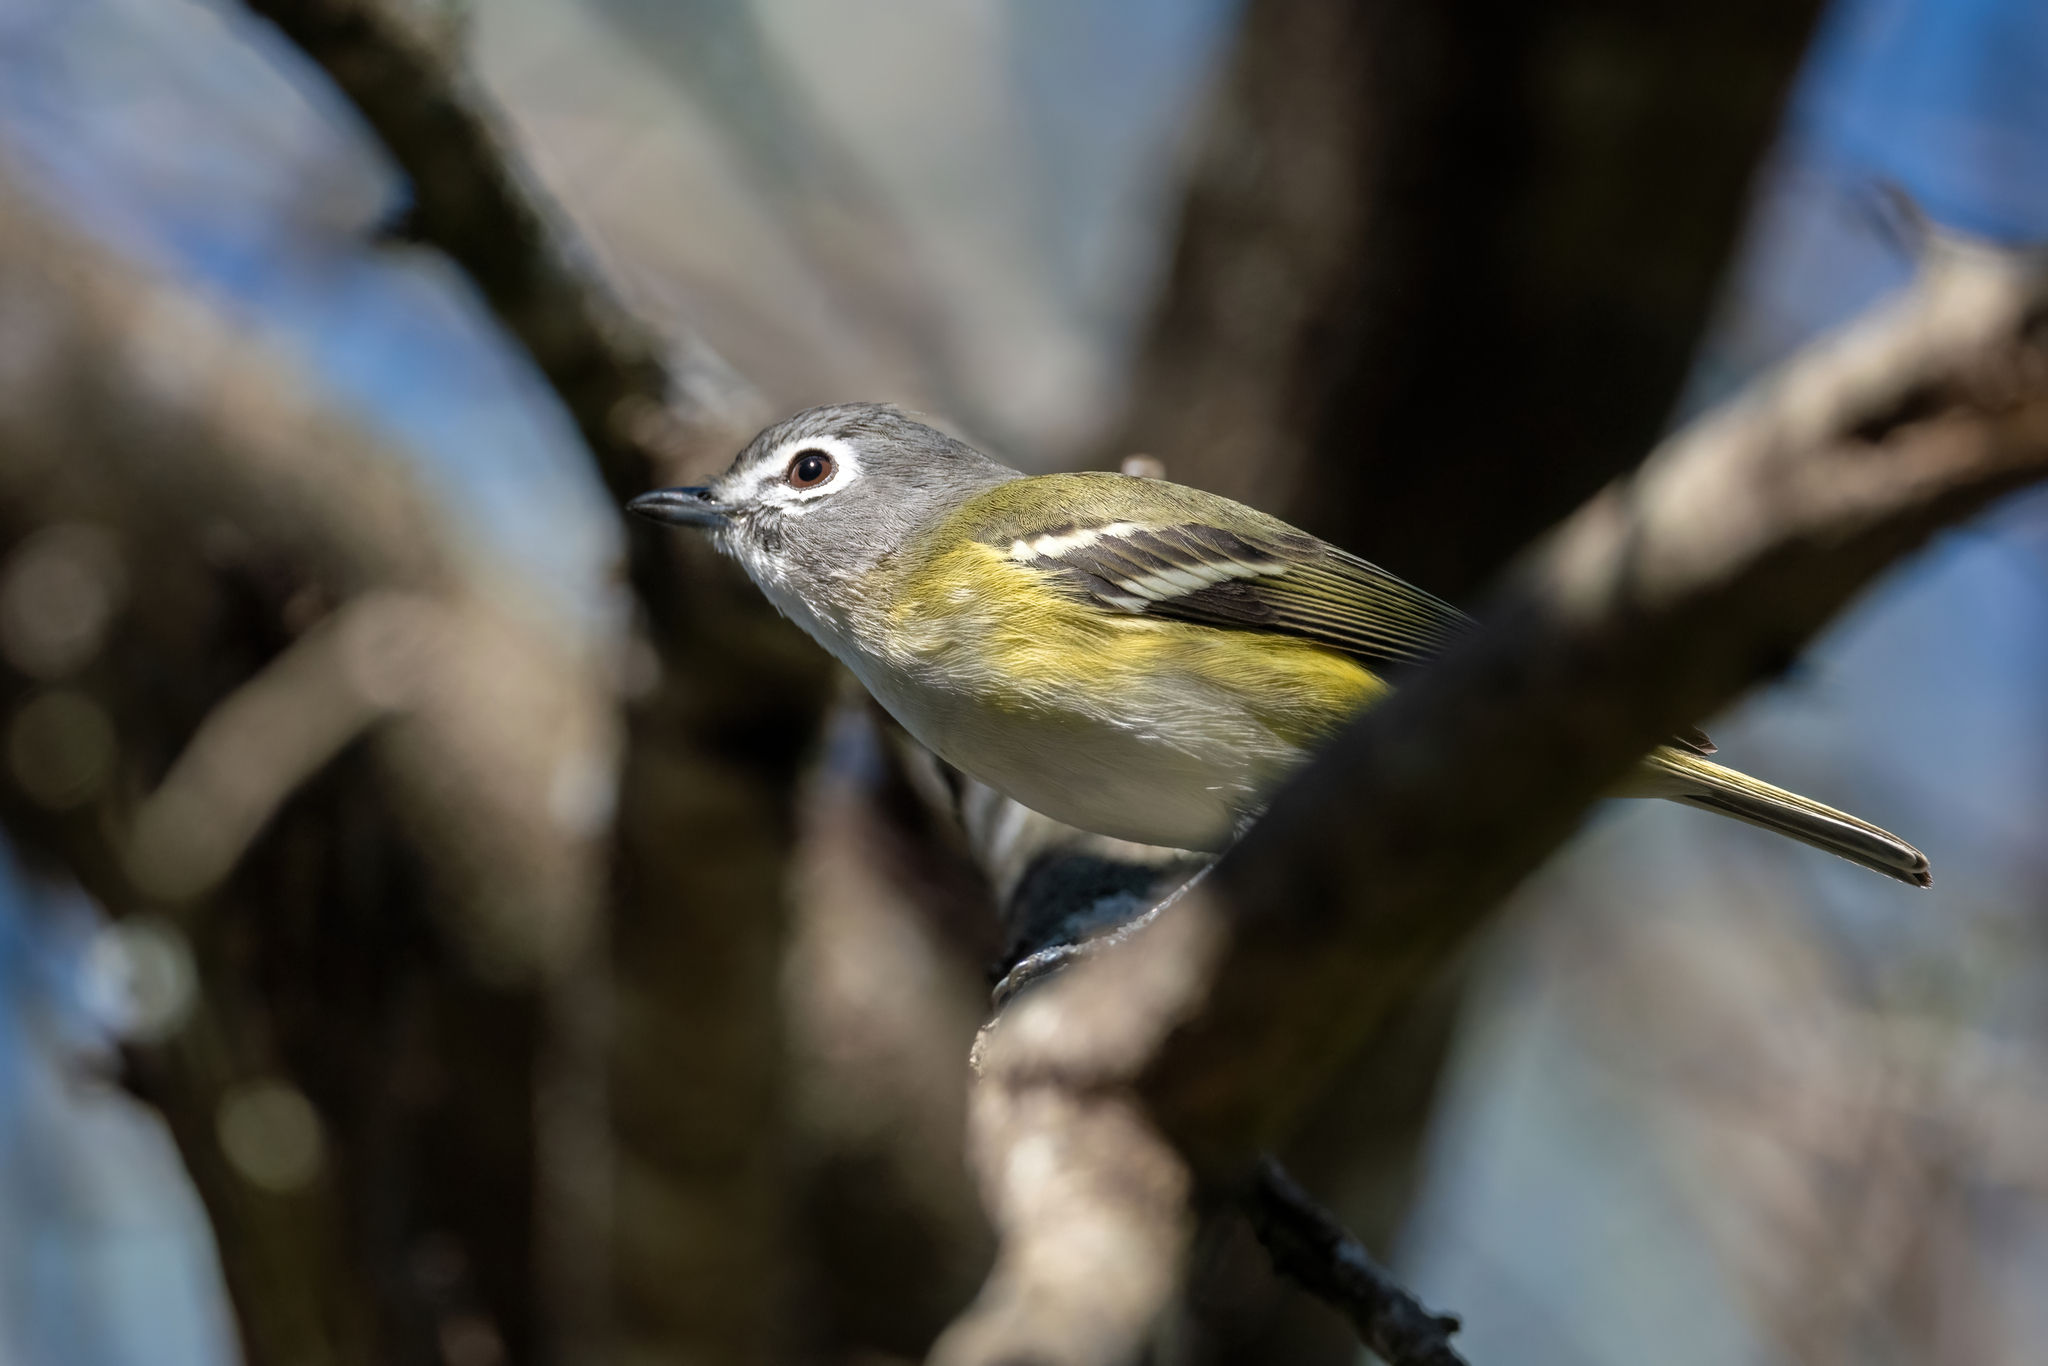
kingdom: Animalia
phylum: Chordata
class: Aves
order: Passeriformes
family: Vireonidae
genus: Vireo
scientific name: Vireo solitarius
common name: Blue-headed vireo
